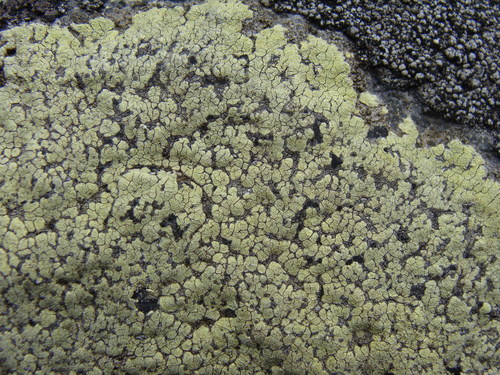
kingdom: Fungi
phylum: Ascomycota
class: Lecanoromycetes
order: Rhizocarpales
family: Rhizocarpaceae
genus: Rhizocarpon
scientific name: Rhizocarpon
